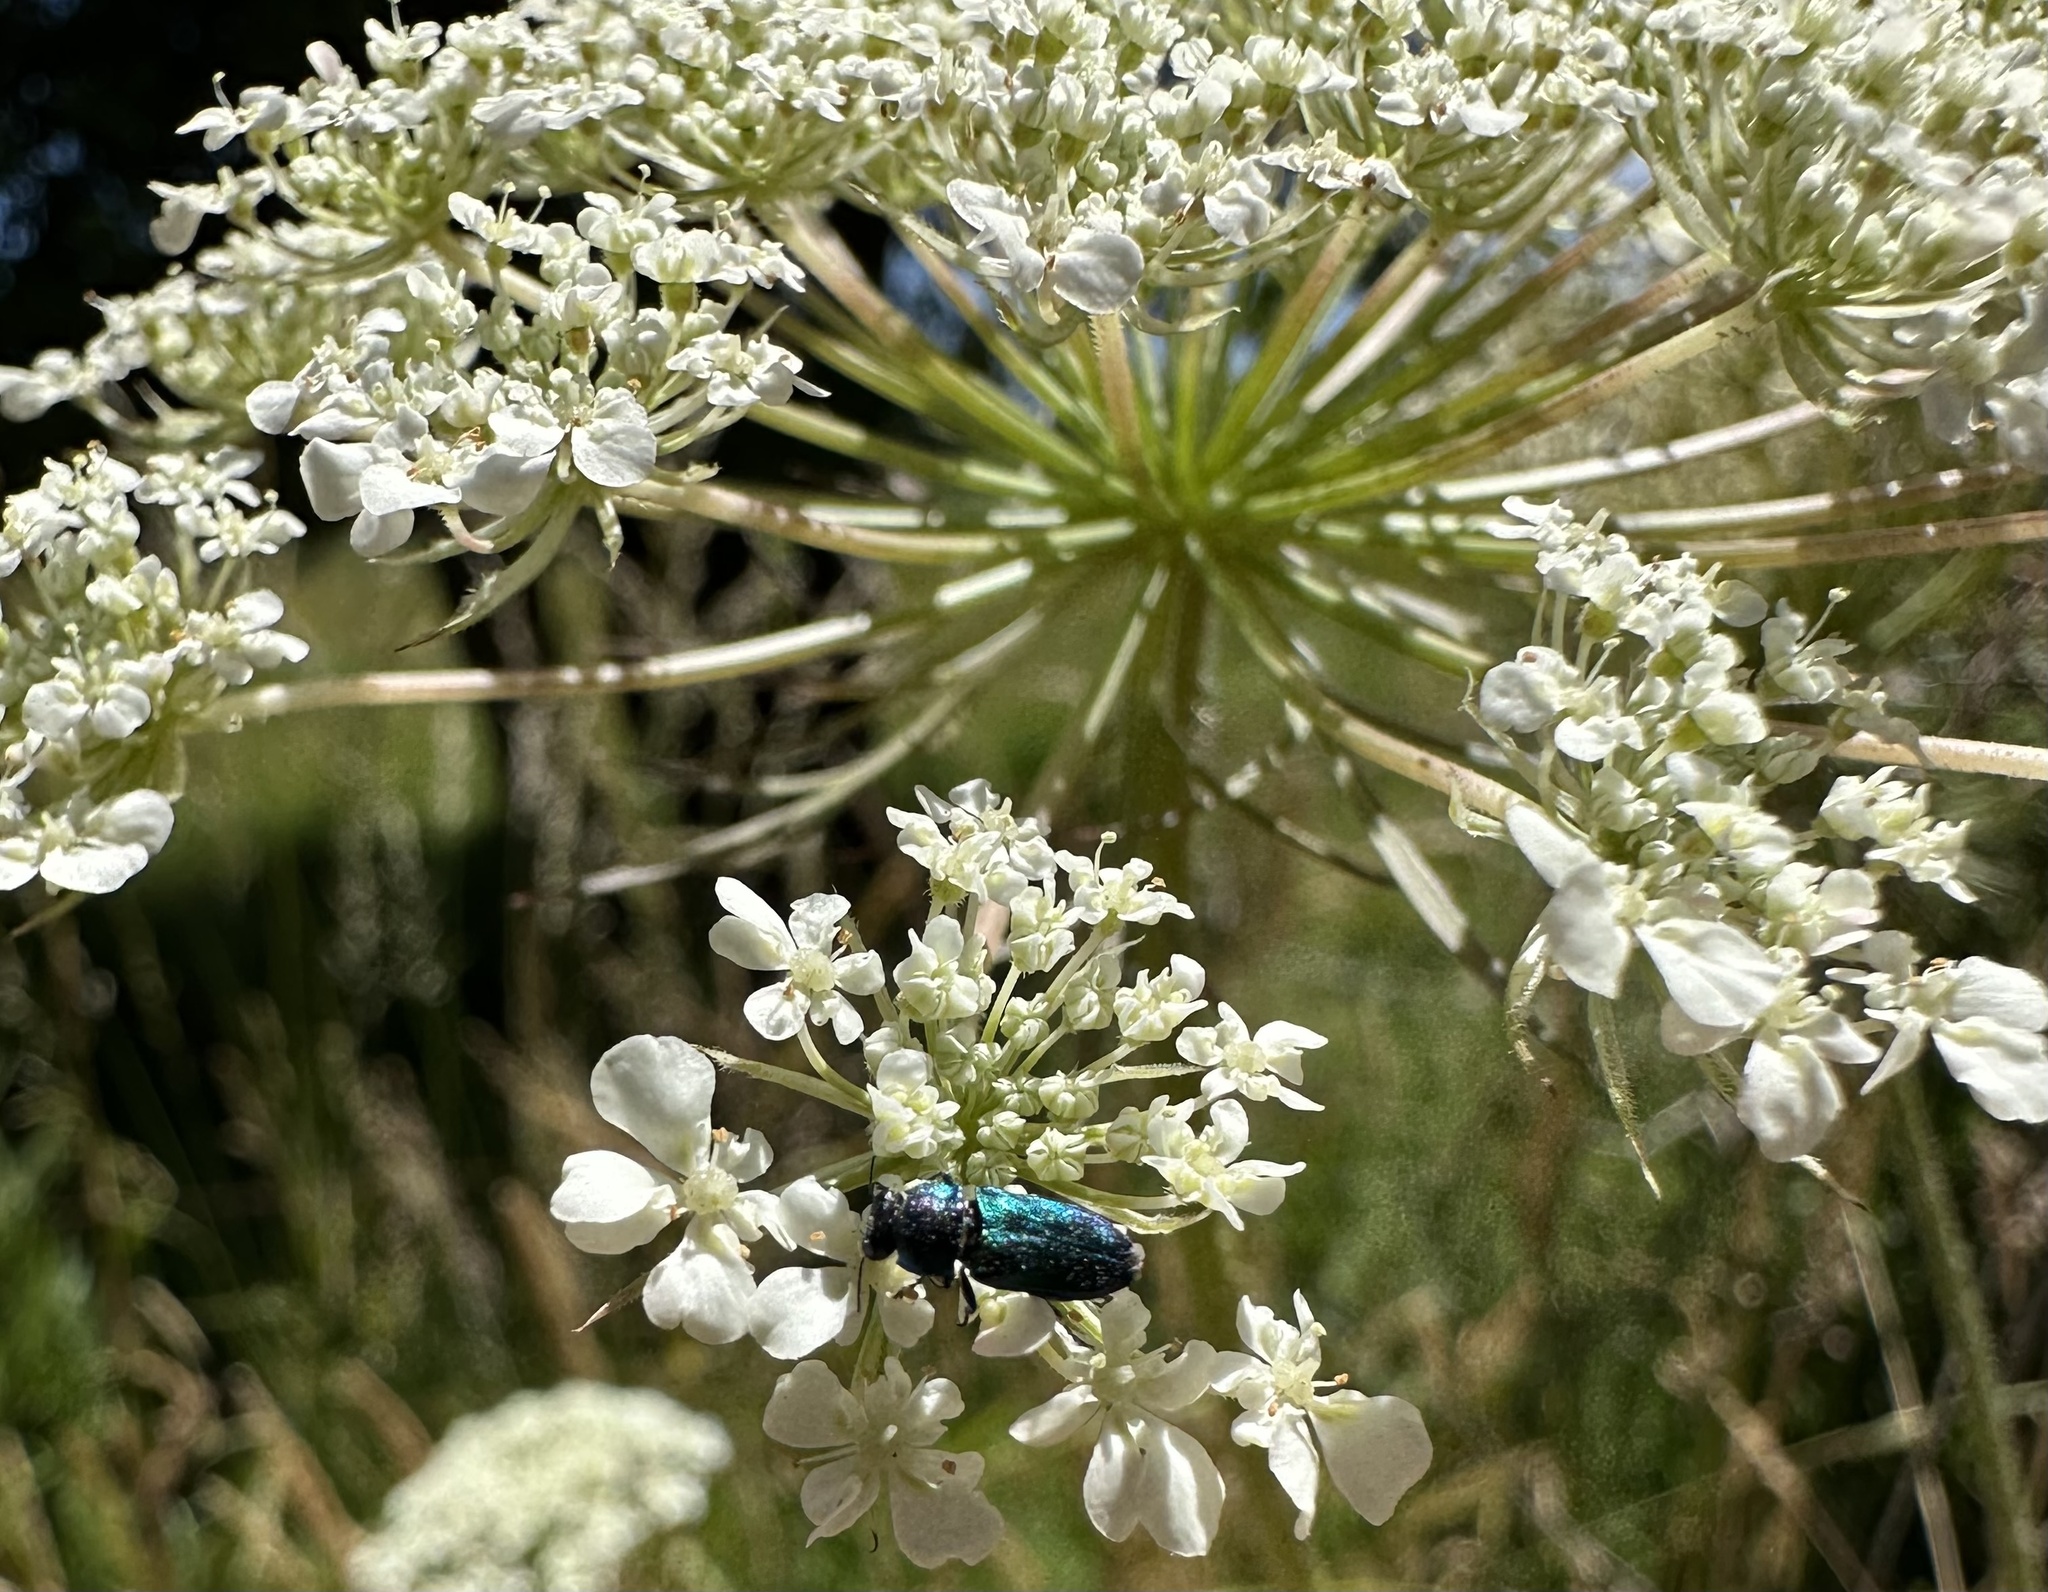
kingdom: Animalia
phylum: Arthropoda
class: Insecta
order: Coleoptera
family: Buprestidae
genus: Bilyaxia
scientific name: Bilyaxia concinna
